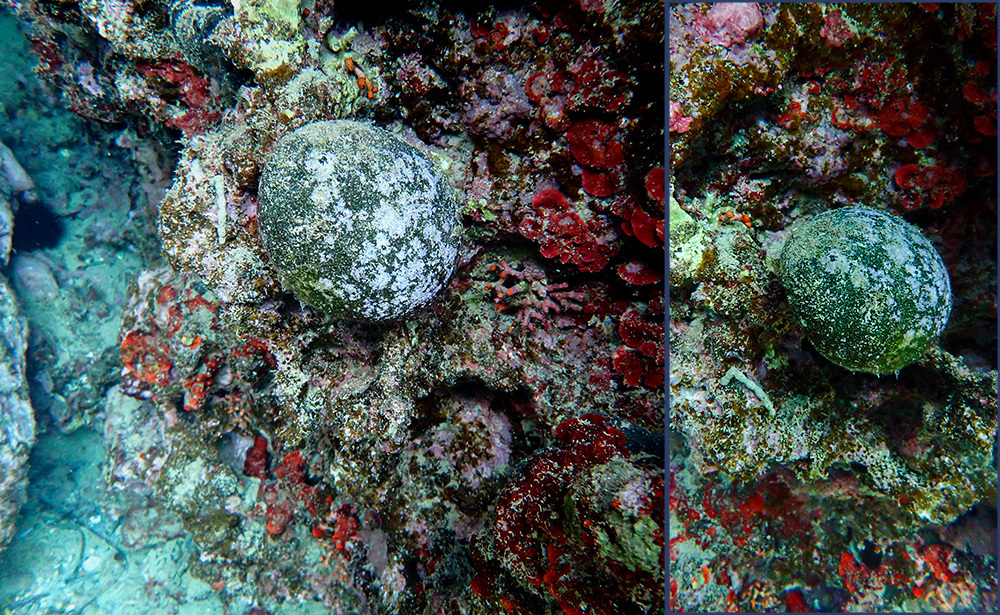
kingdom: Plantae
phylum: Chlorophyta
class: Ulvophyceae
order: Bryopsidales
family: Codiaceae
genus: Codium
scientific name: Codium bursa
